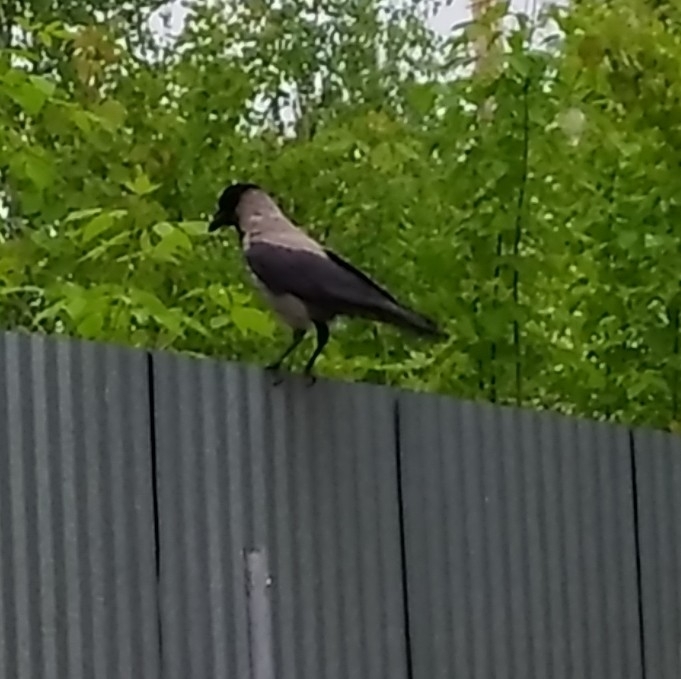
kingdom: Animalia
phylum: Chordata
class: Aves
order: Passeriformes
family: Corvidae
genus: Corvus
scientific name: Corvus cornix
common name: Hooded crow
